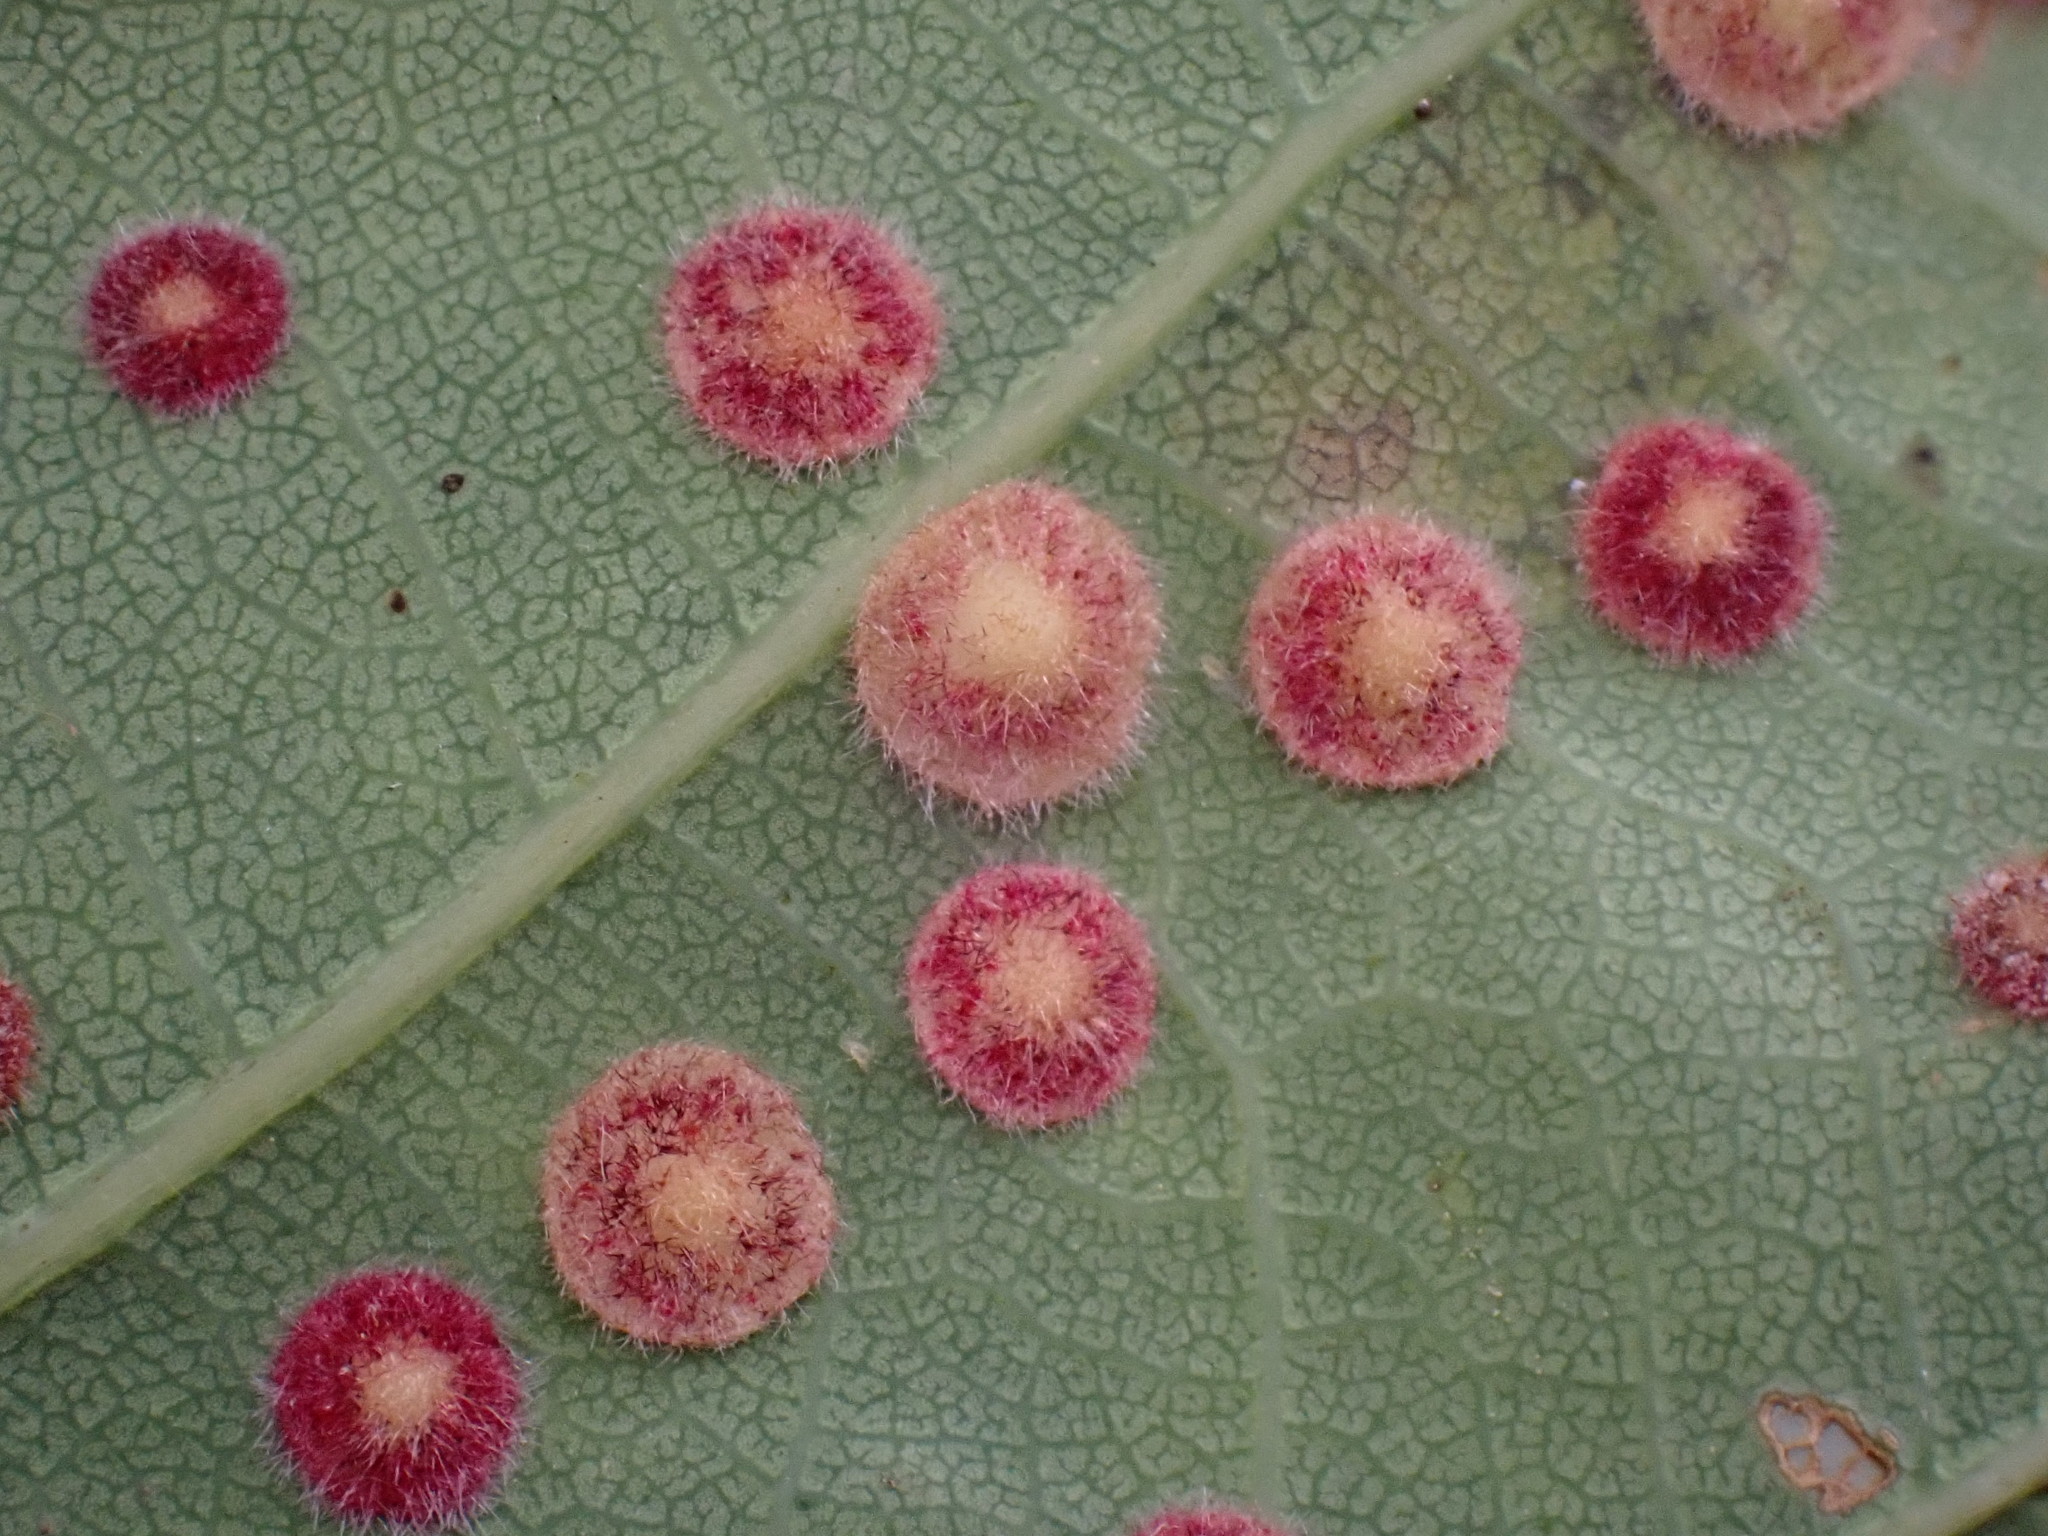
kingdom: Animalia
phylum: Arthropoda
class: Insecta
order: Hymenoptera
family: Cynipidae
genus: Neuroterus
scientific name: Neuroterus quercusbaccarum
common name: Common spangle gall
